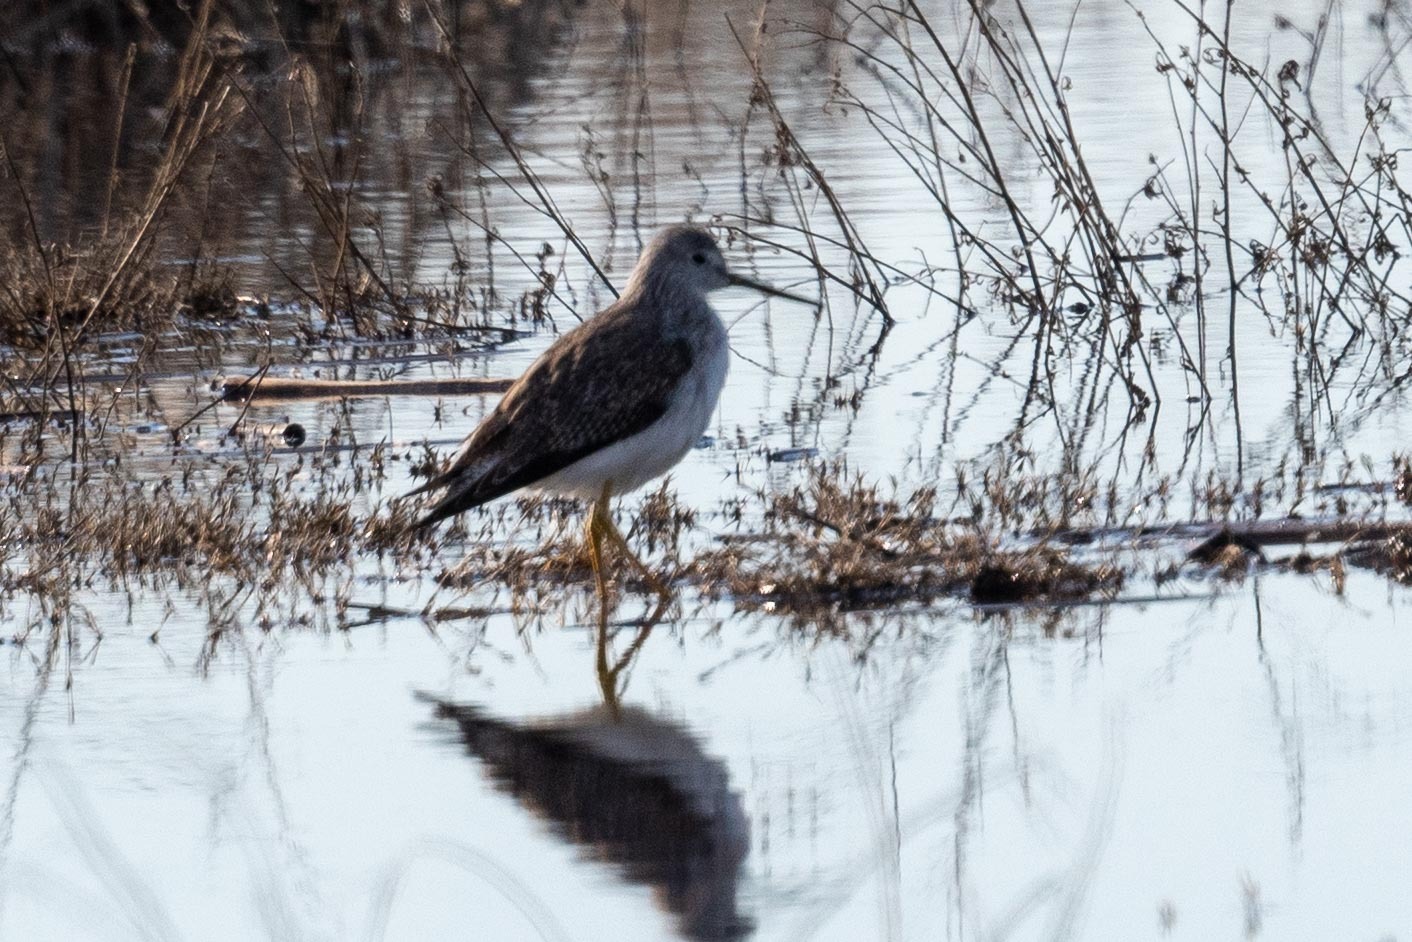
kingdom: Animalia
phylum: Chordata
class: Aves
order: Charadriiformes
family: Scolopacidae
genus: Tringa
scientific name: Tringa melanoleuca
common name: Greater yellowlegs
